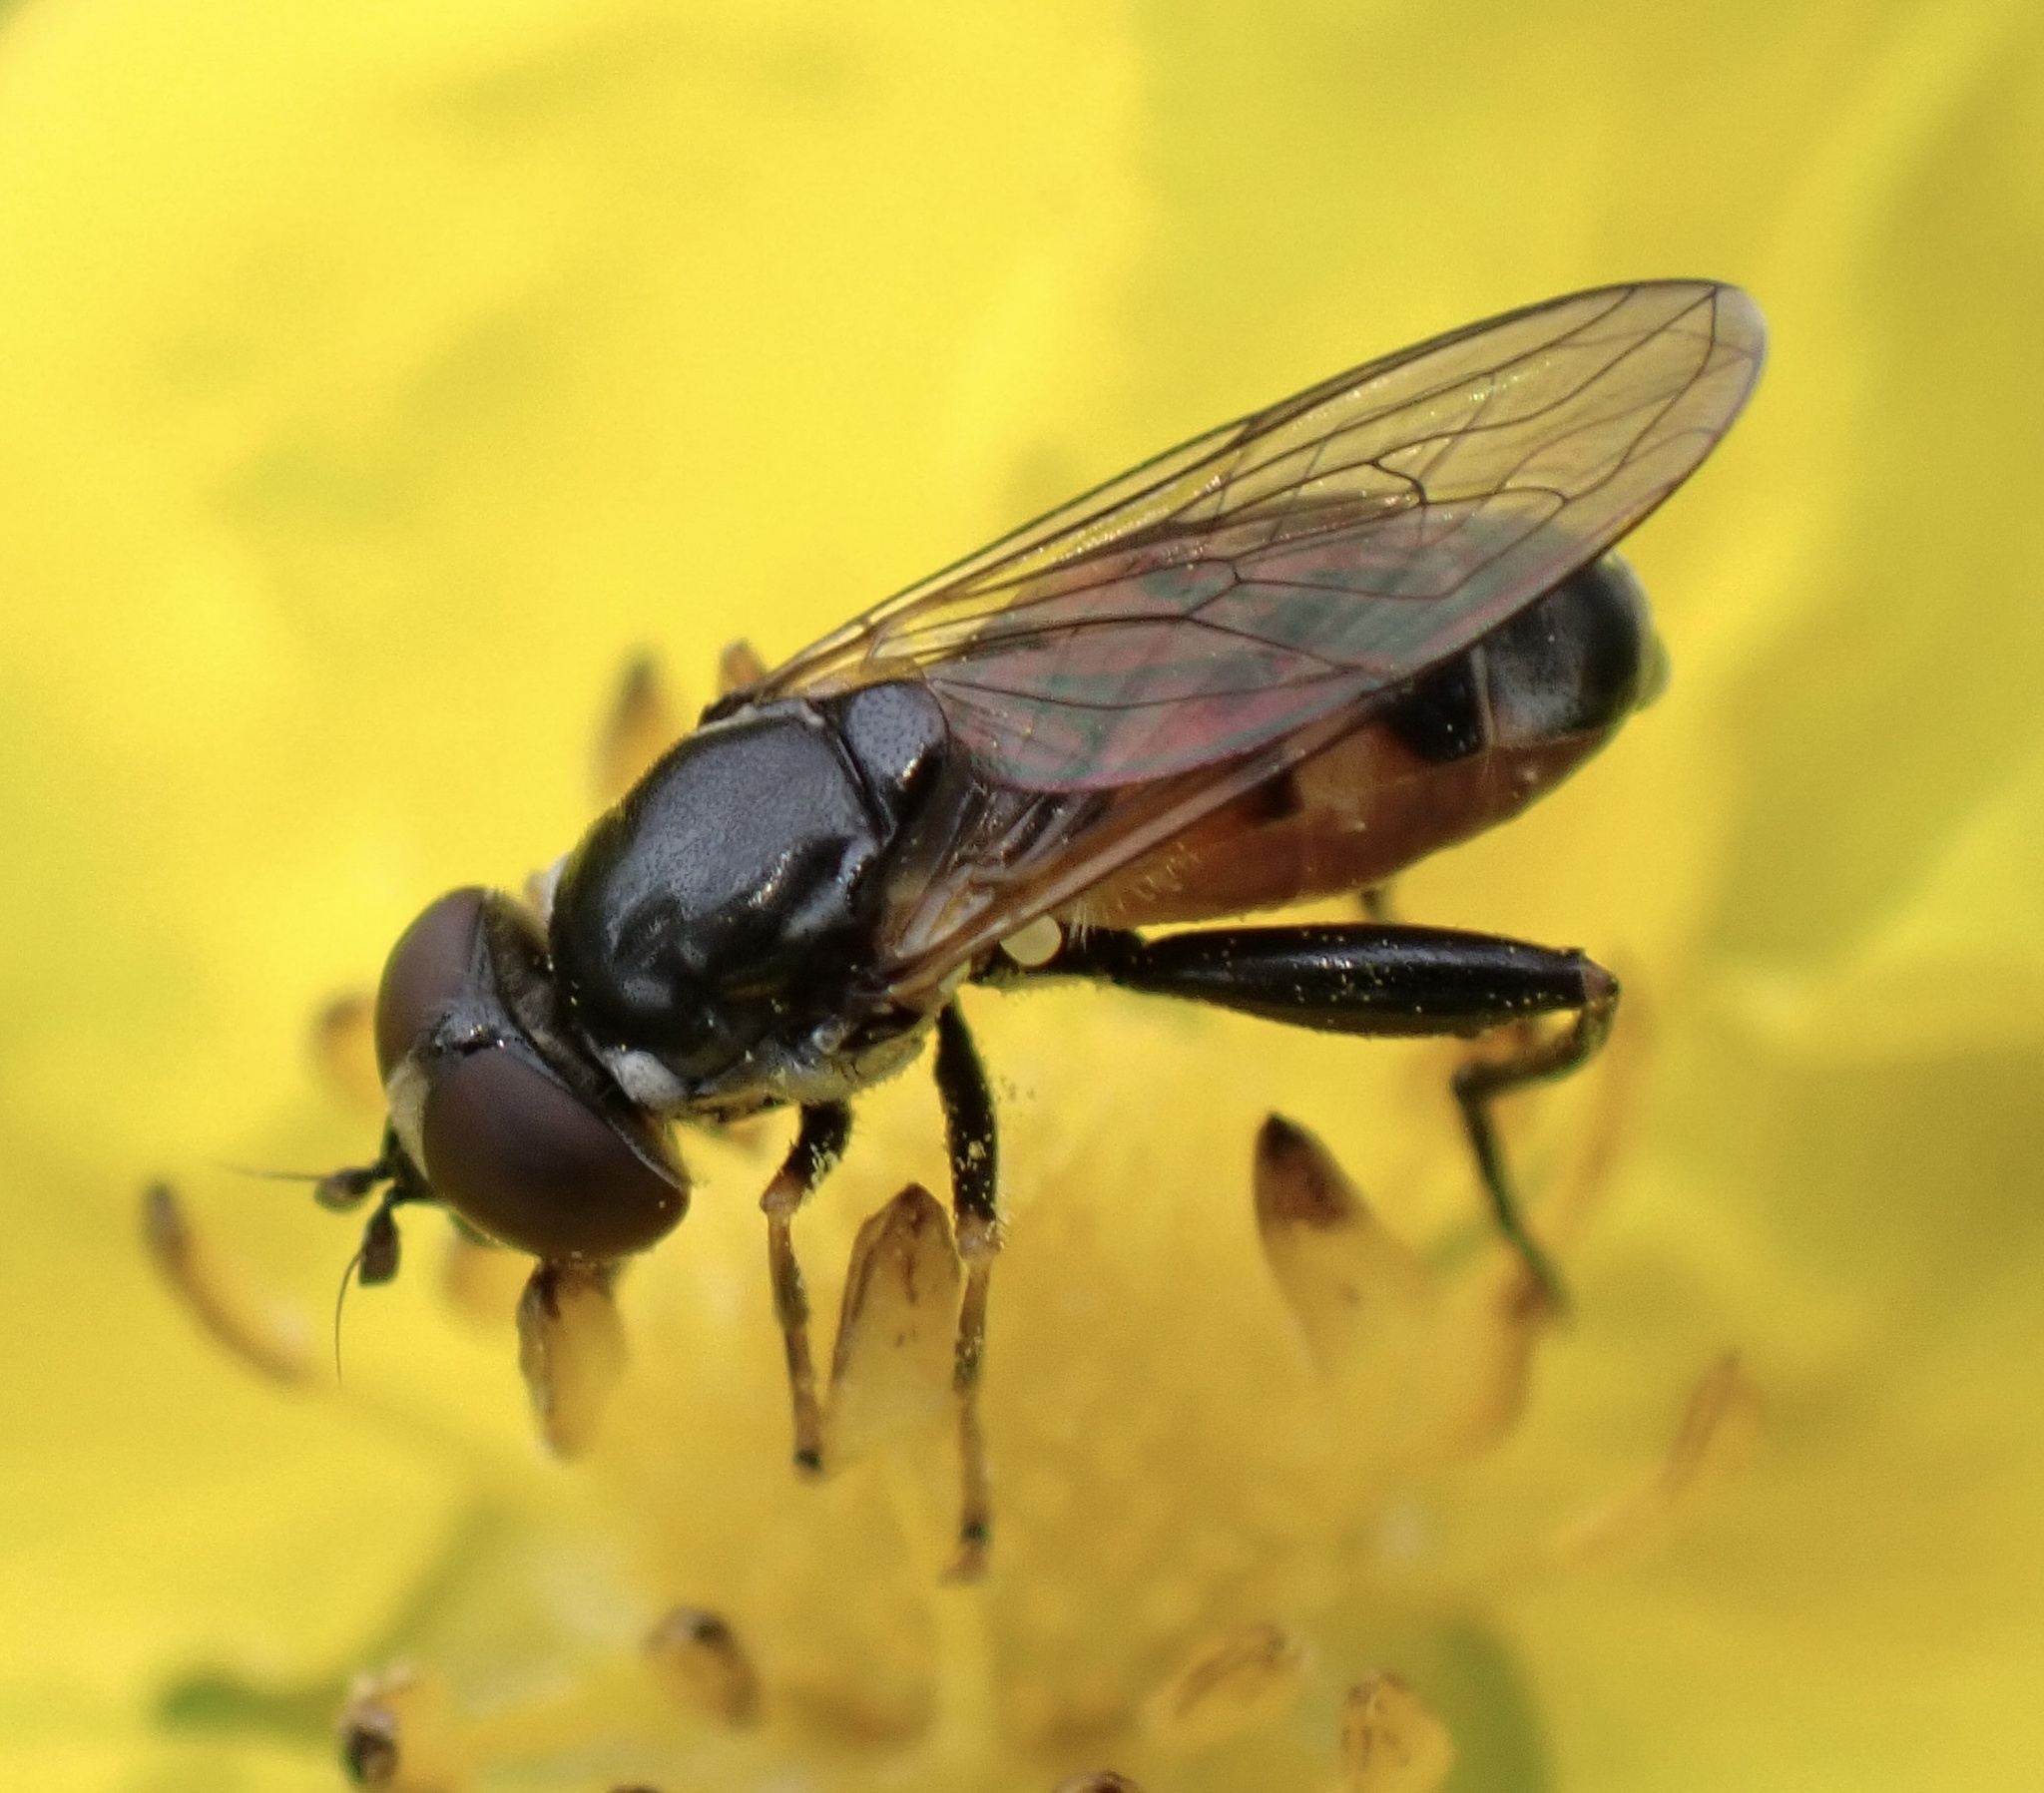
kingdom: Animalia
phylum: Arthropoda
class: Insecta
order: Diptera
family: Syrphidae
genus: Tropidia
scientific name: Tropidia scita
